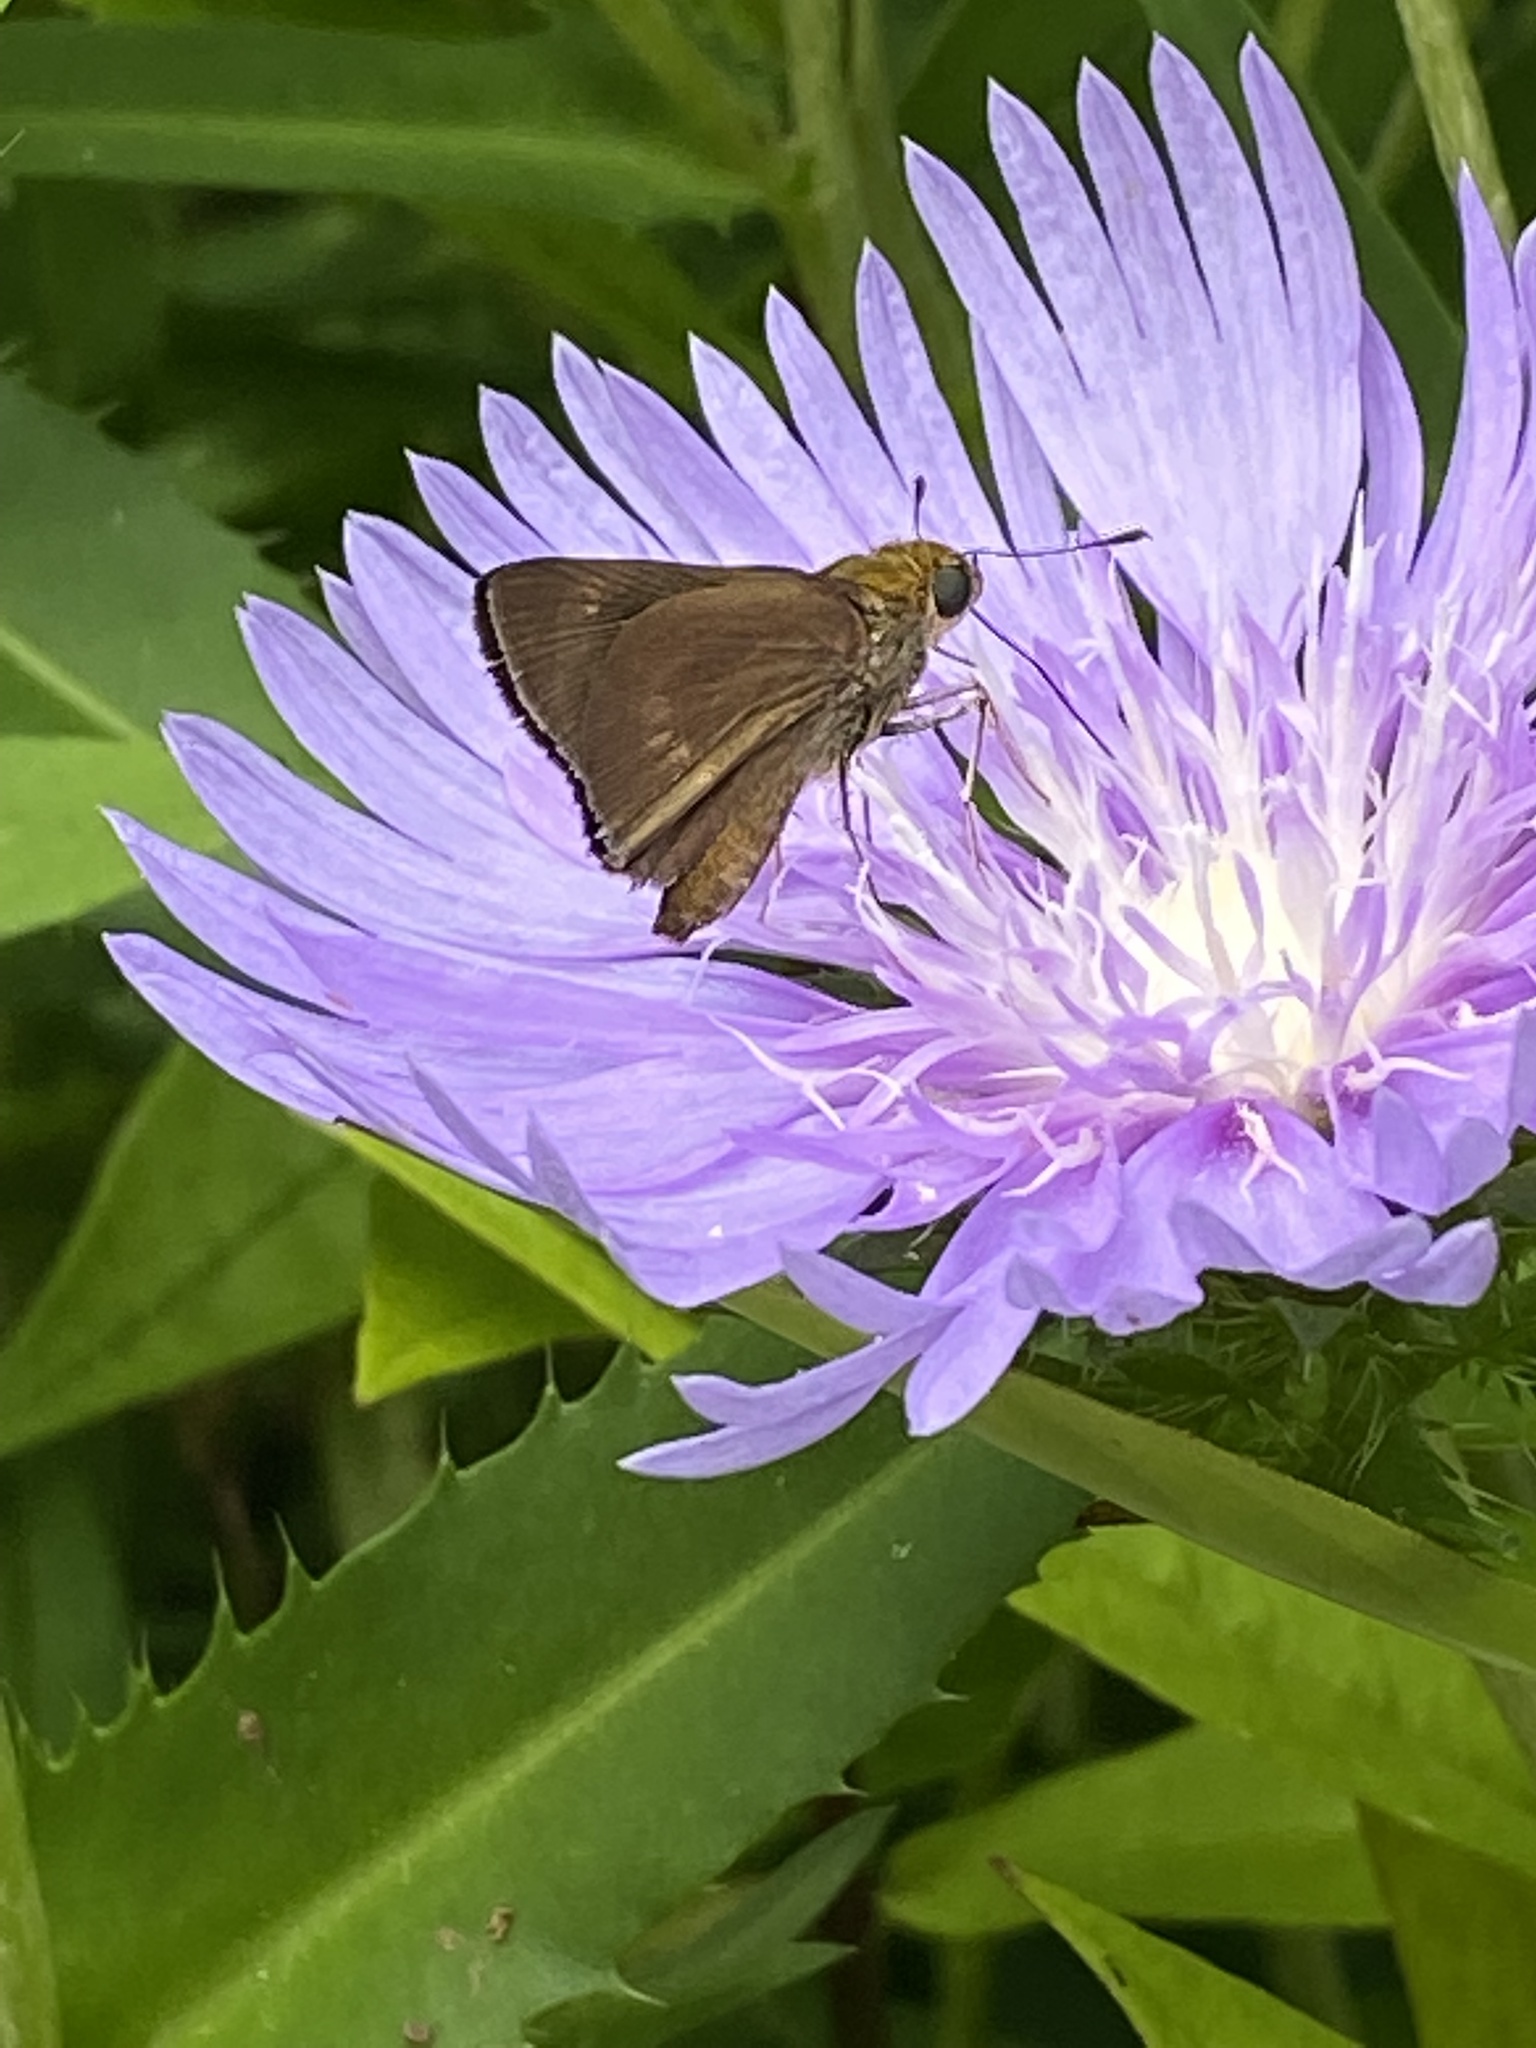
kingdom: Animalia
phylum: Arthropoda
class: Insecta
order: Lepidoptera
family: Hesperiidae
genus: Euphyes
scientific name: Euphyes vestris
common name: Dun skipper
